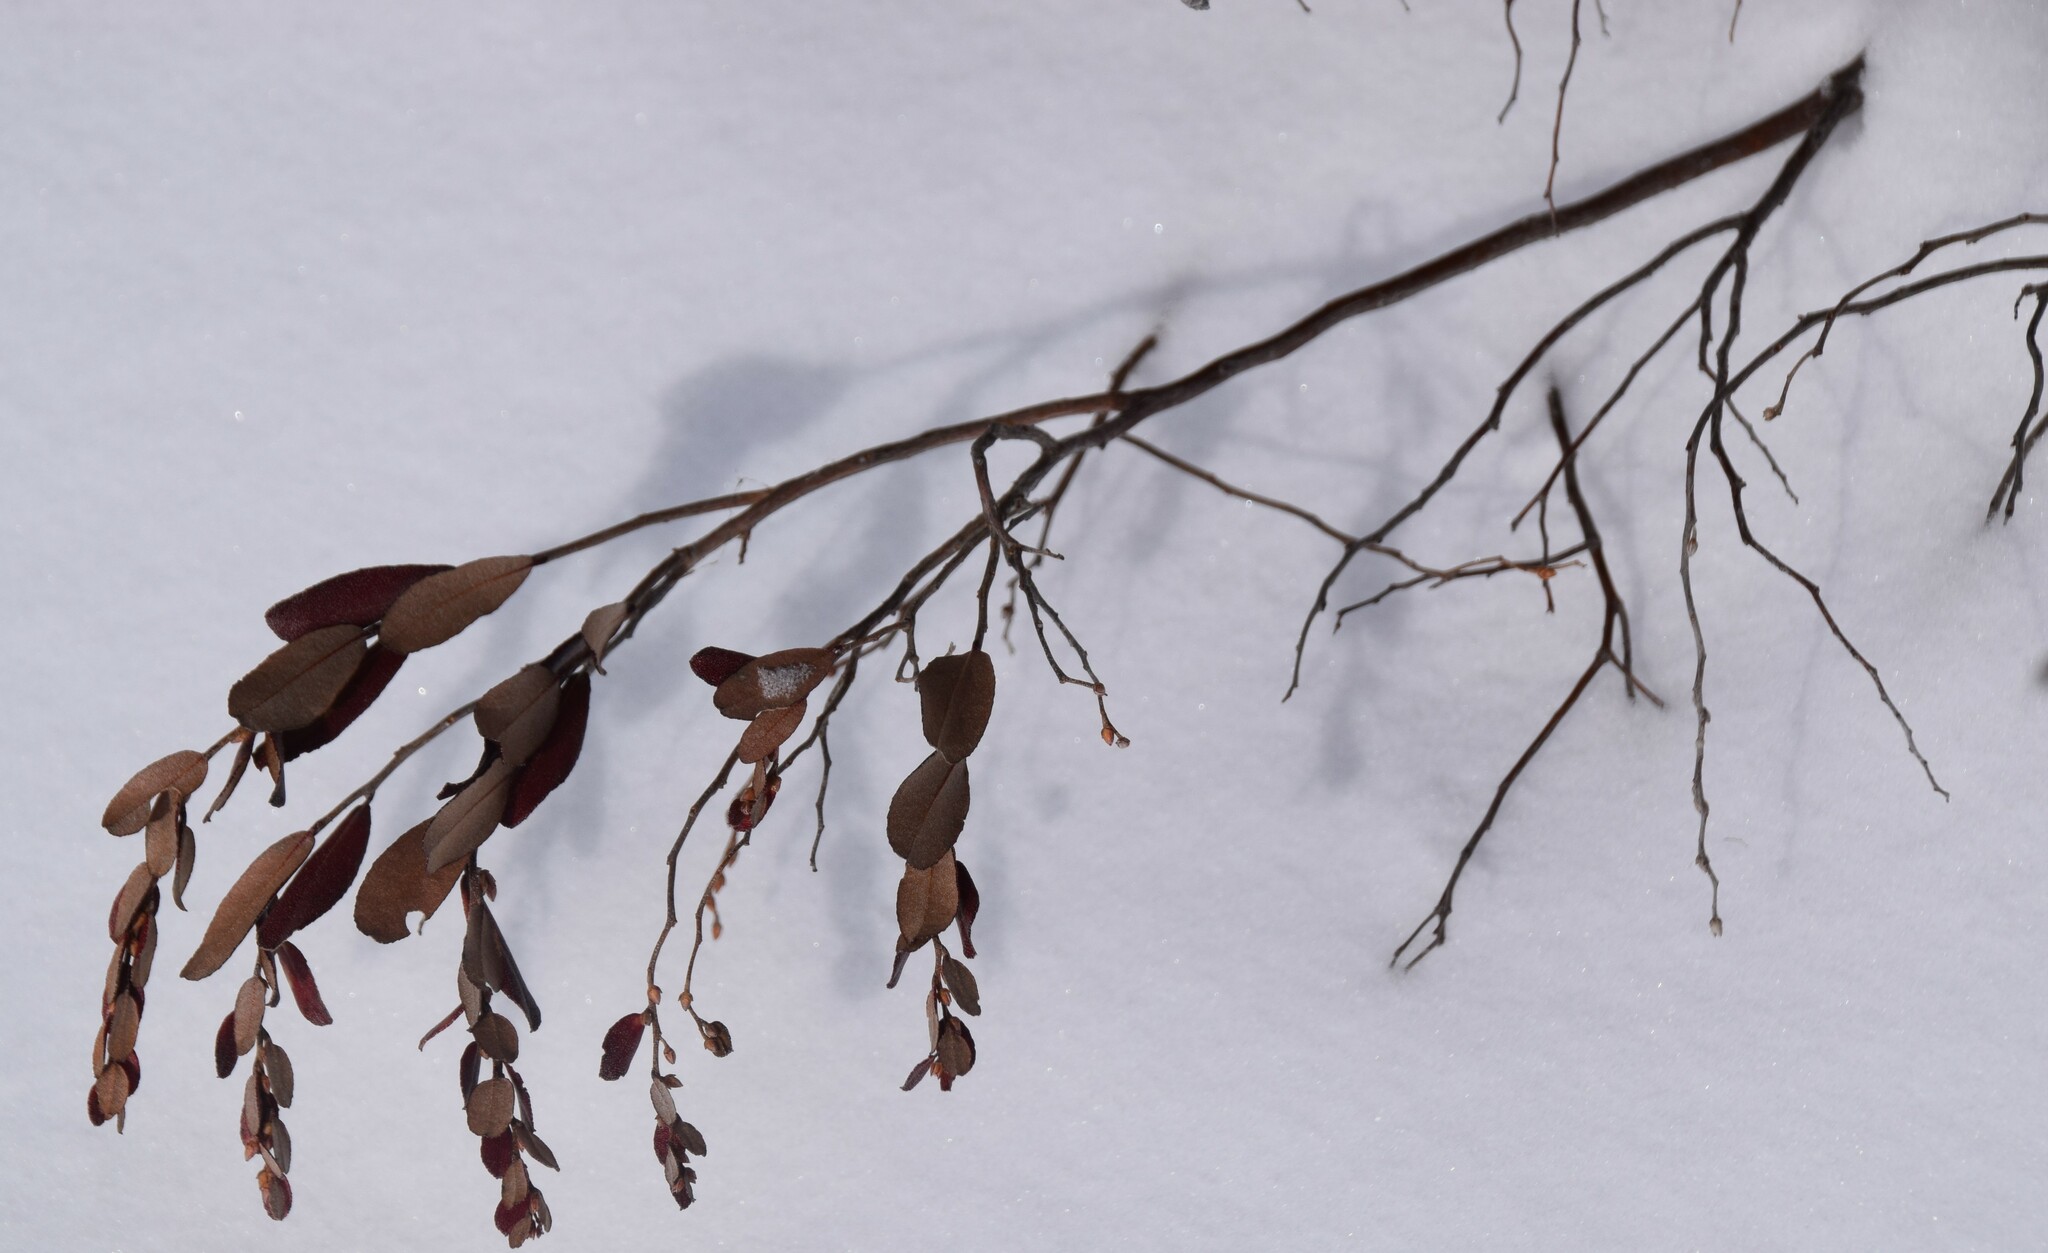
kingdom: Plantae
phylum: Tracheophyta
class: Magnoliopsida
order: Ericales
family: Ericaceae
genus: Chamaedaphne
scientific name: Chamaedaphne calyculata
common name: Leatherleaf
